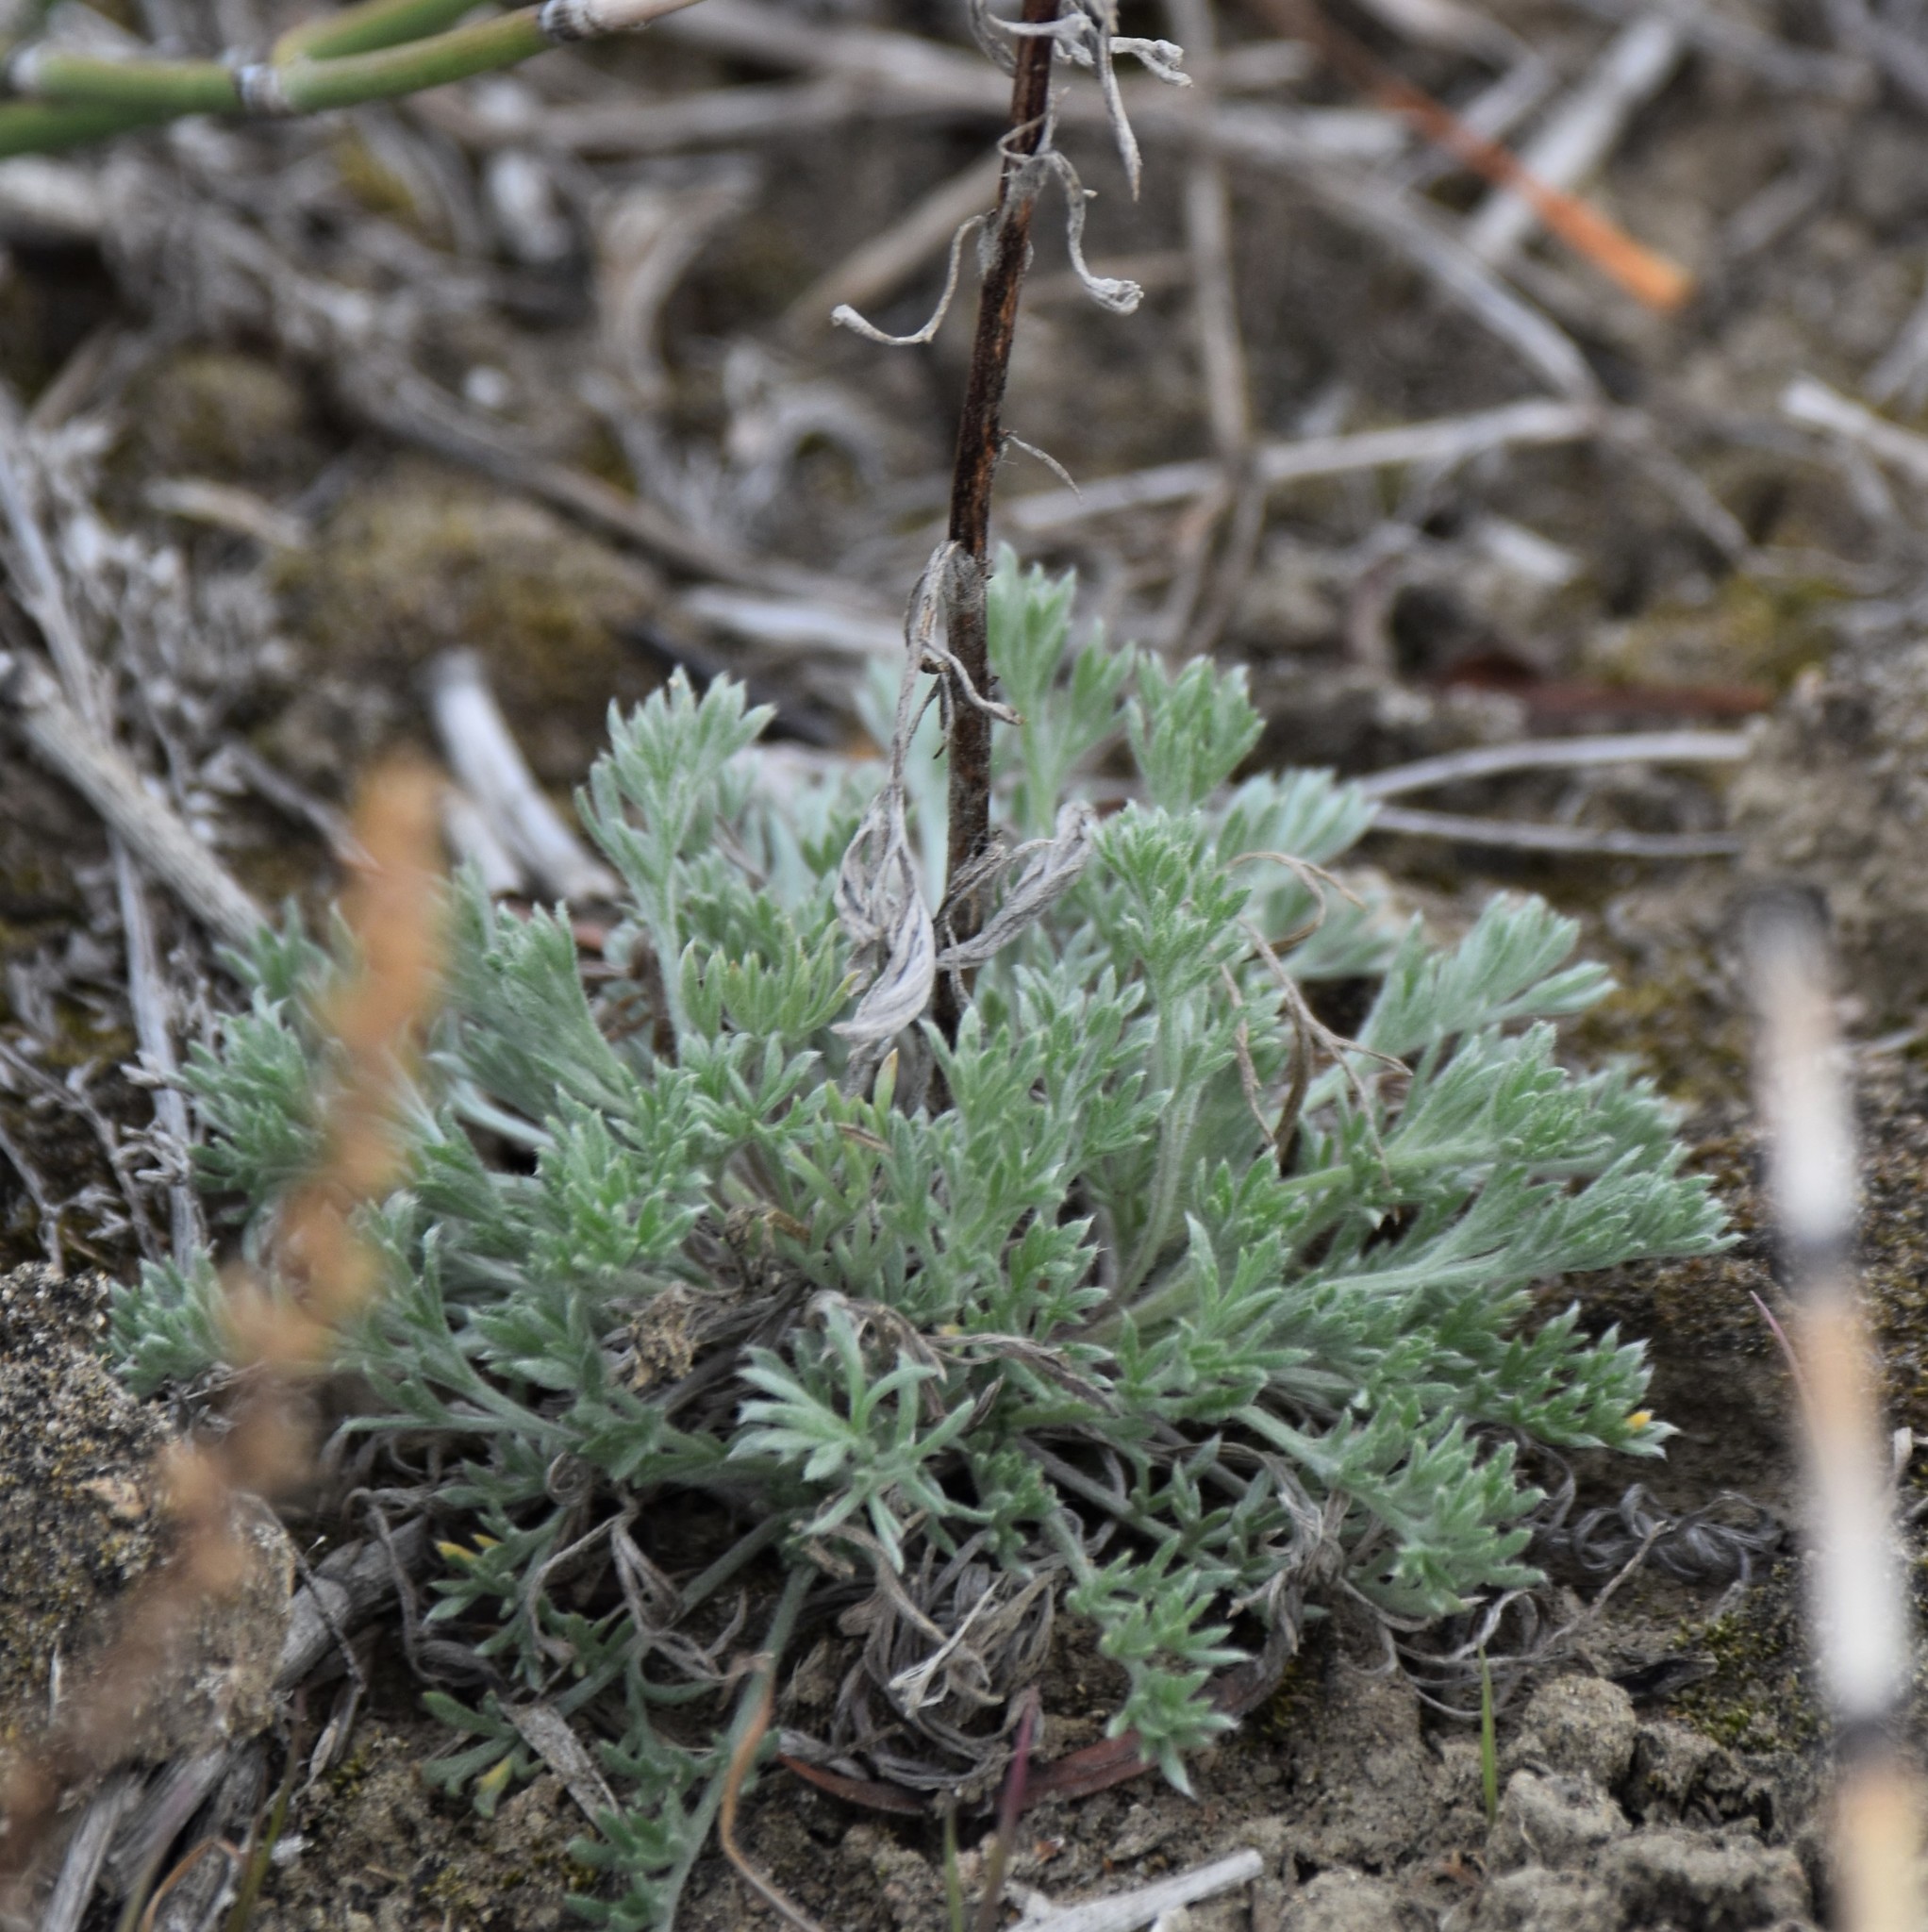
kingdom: Plantae
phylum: Tracheophyta
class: Magnoliopsida
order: Asterales
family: Asteraceae
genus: Artemisia
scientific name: Artemisia campestris
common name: Field wormwood
